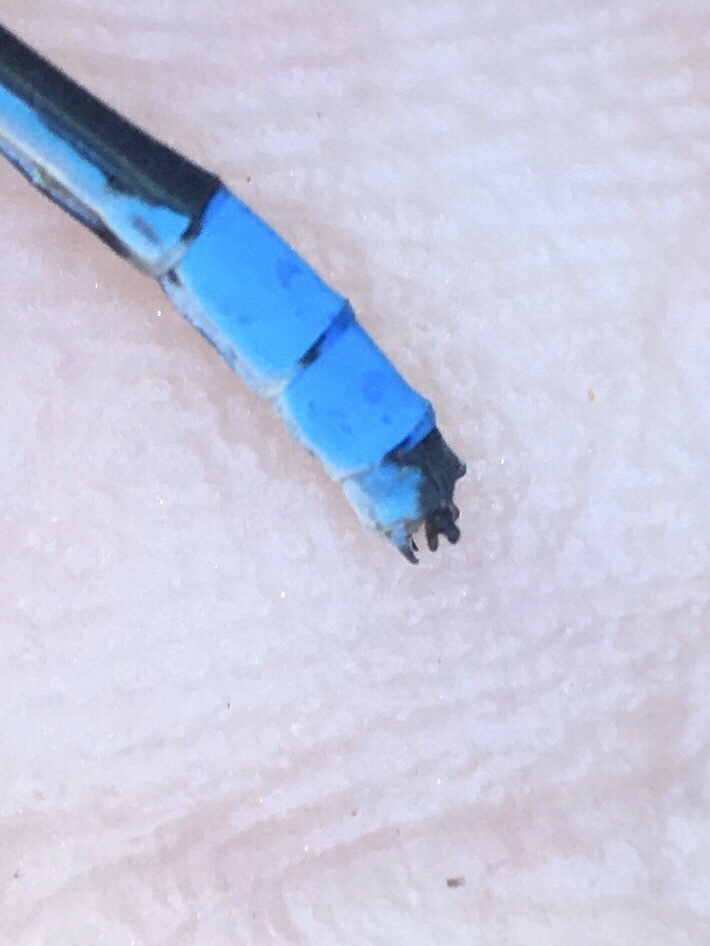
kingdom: Animalia
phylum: Arthropoda
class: Insecta
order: Odonata
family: Coenagrionidae
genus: Enallagma
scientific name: Enallagma ebrium
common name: Marsh bluet
